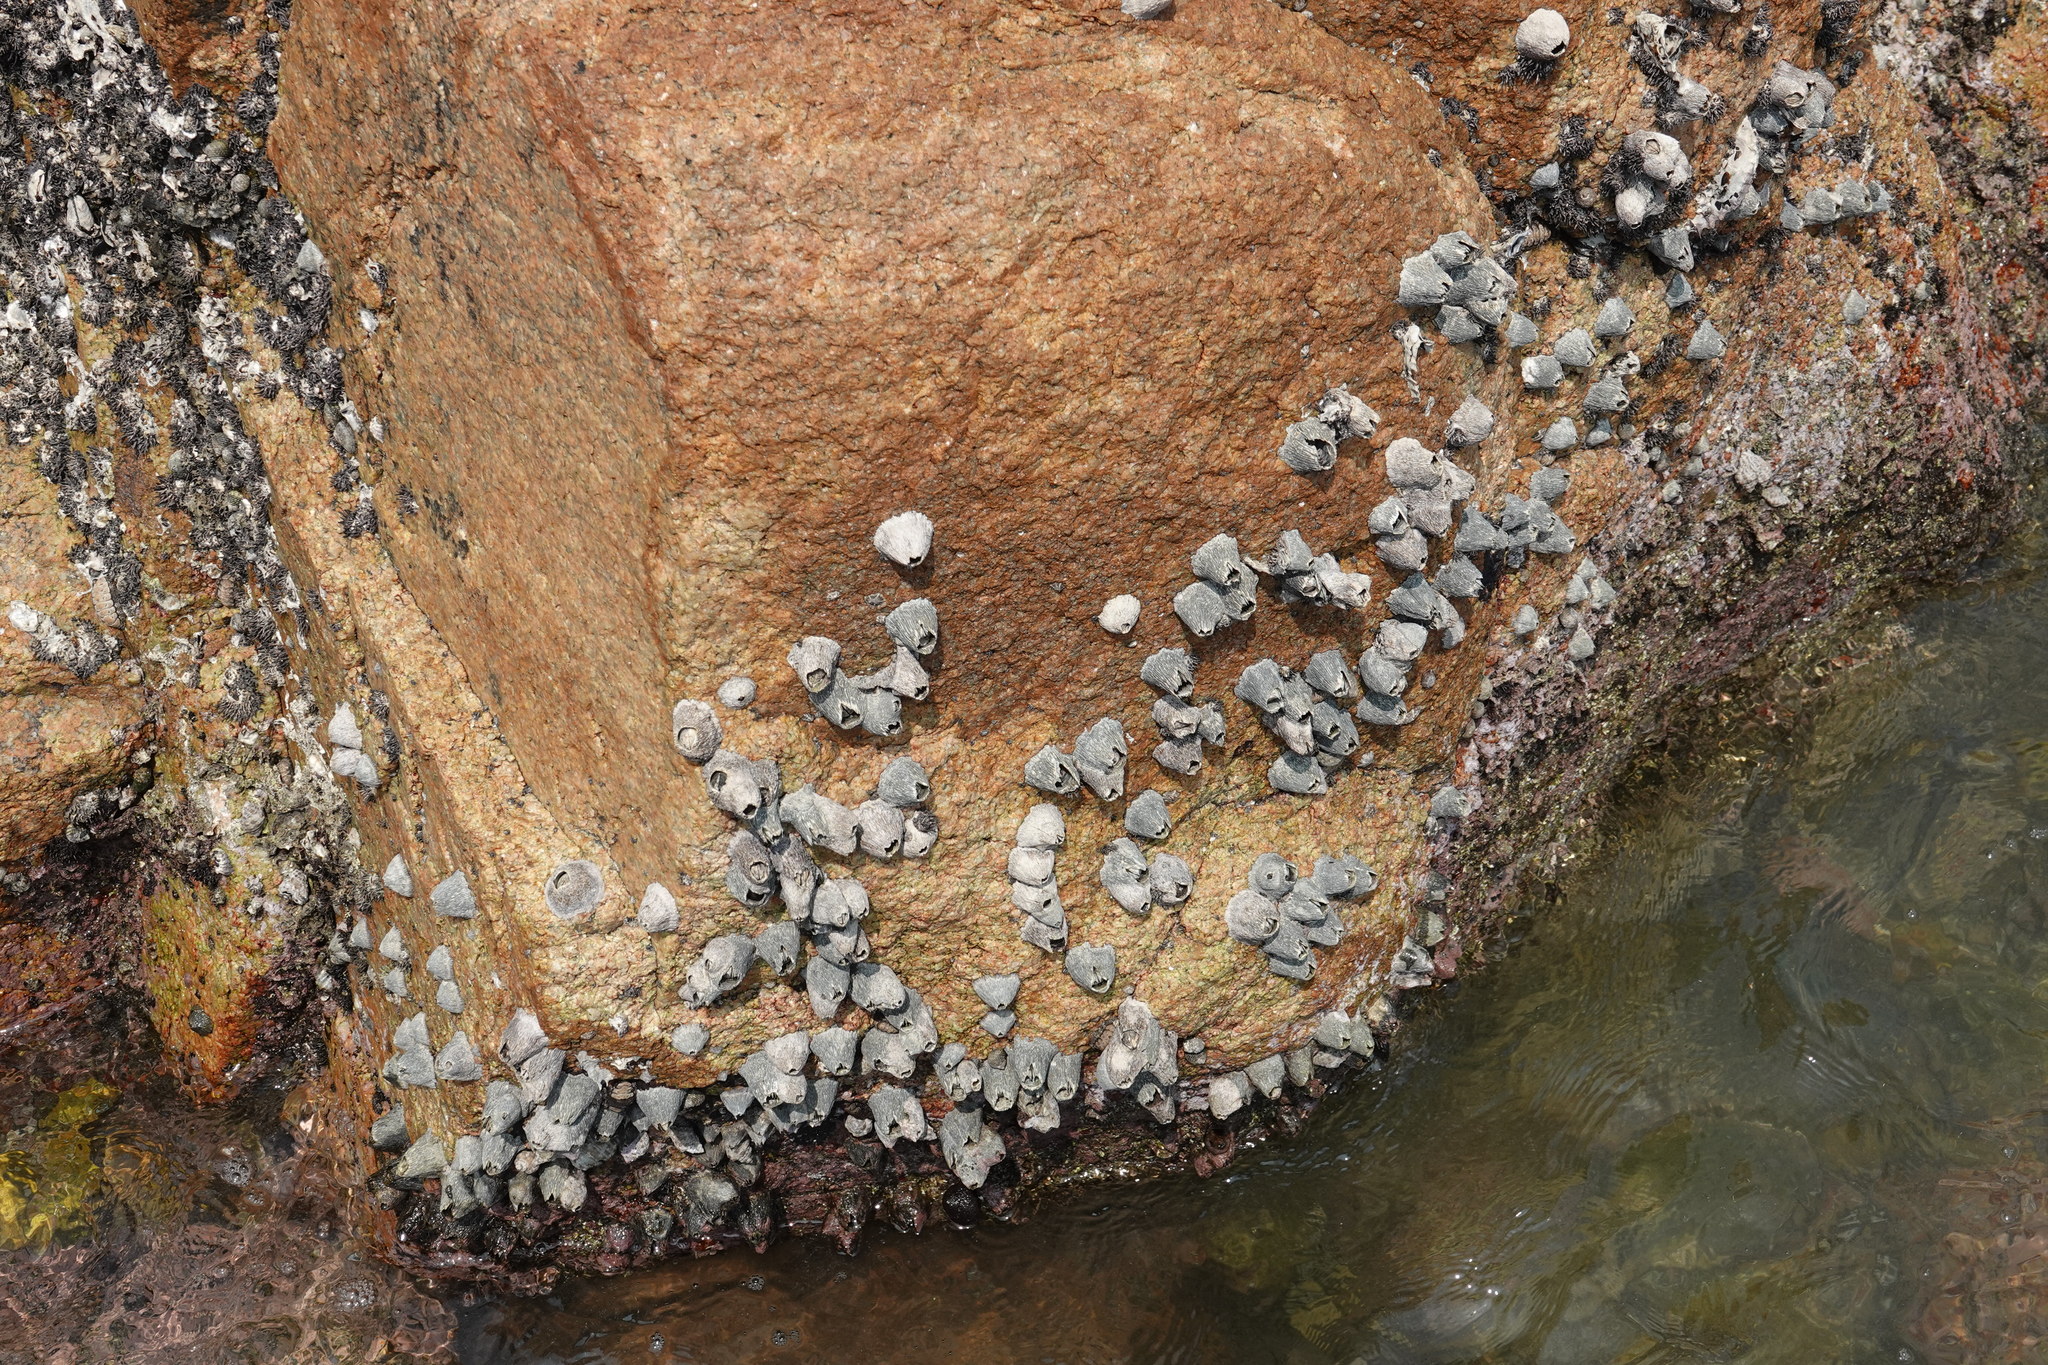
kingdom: Animalia
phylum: Arthropoda
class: Maxillopoda
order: Sessilia
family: Tetraclitidae
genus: Tetraclita
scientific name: Tetraclita japonica
